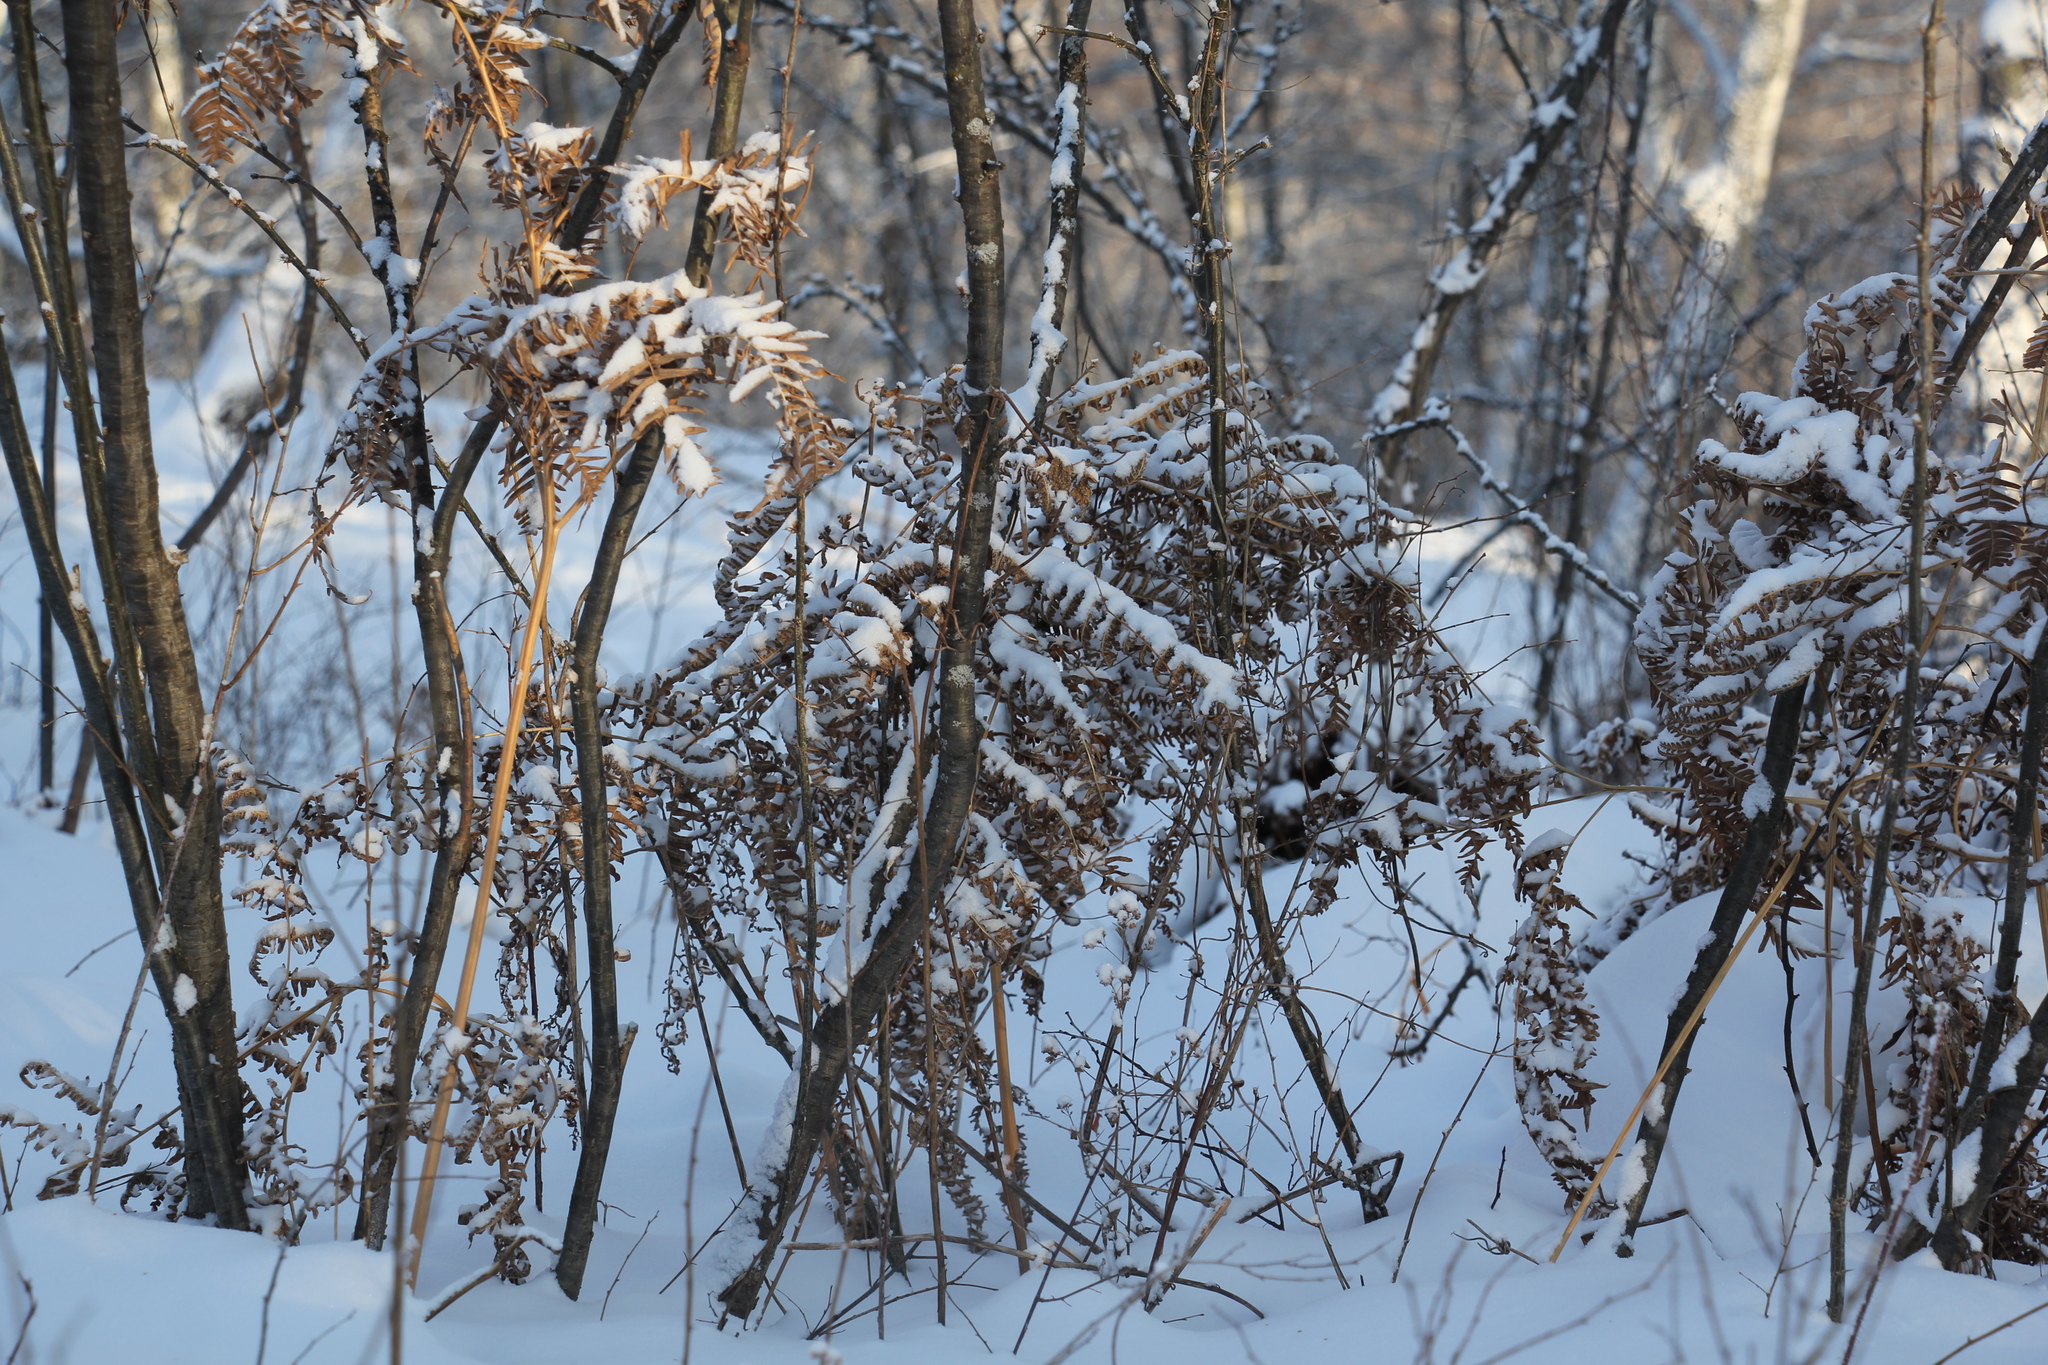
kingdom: Plantae
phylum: Tracheophyta
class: Polypodiopsida
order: Polypodiales
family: Dennstaedtiaceae
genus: Pteridium
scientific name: Pteridium aquilinum
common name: Bracken
